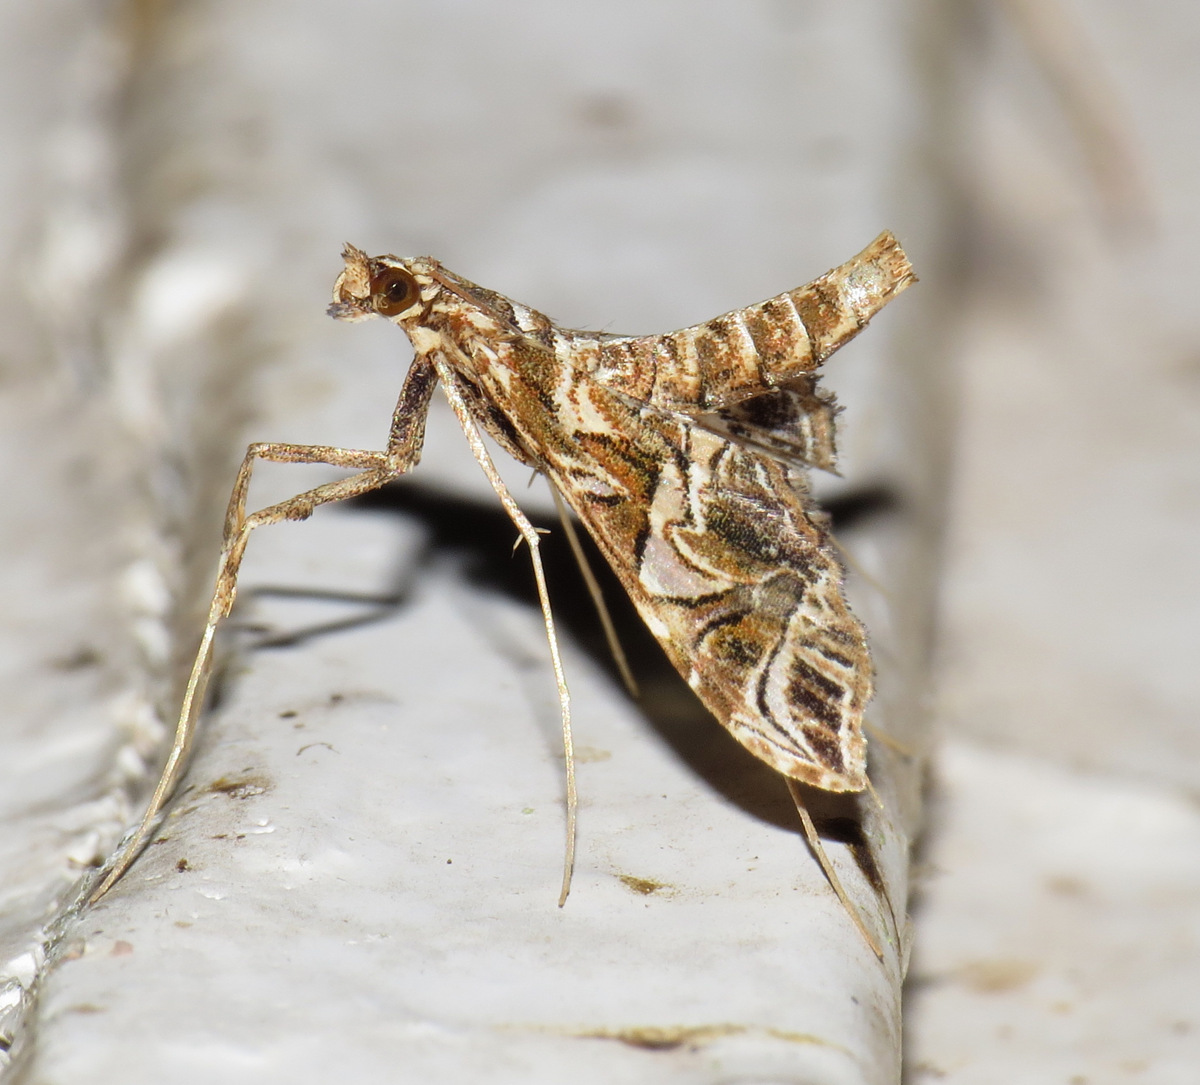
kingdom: Animalia
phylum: Arthropoda
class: Insecta
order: Lepidoptera
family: Crambidae
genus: Lineodes
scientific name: Lineodes convolutalis
